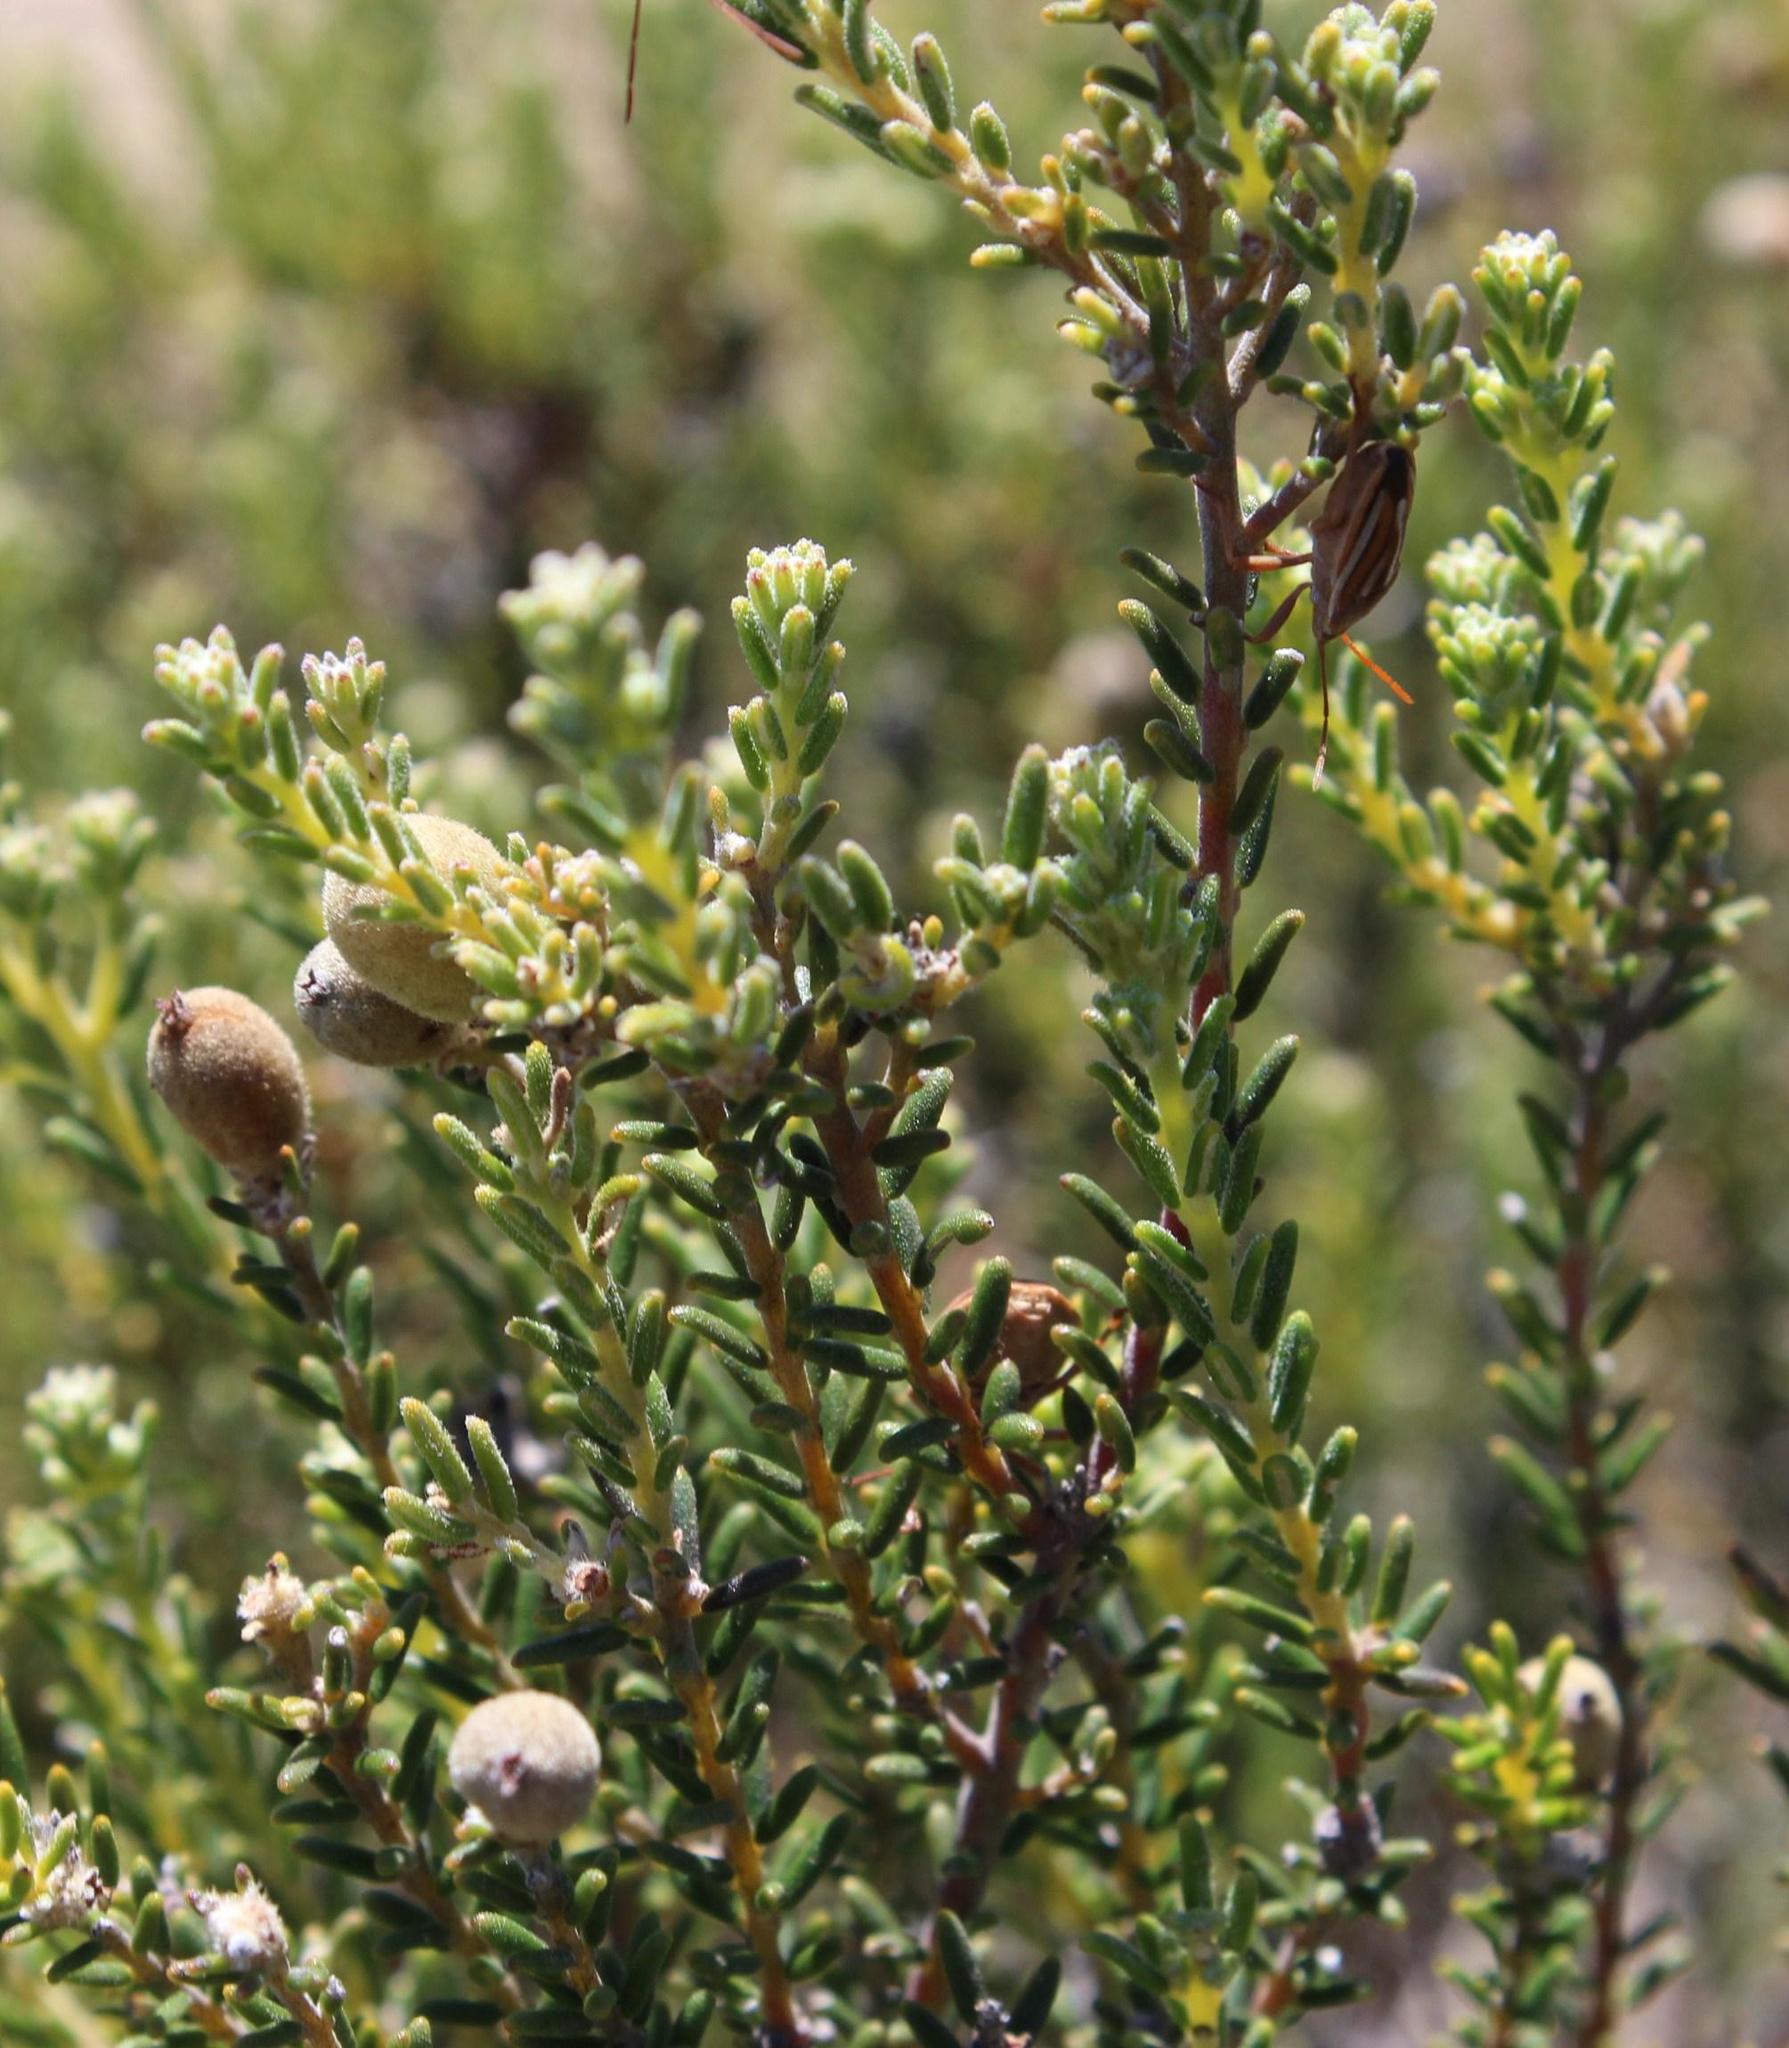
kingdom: Plantae
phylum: Tracheophyta
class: Magnoliopsida
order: Rosales
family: Rhamnaceae
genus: Phylica
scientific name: Phylica cephalantha
